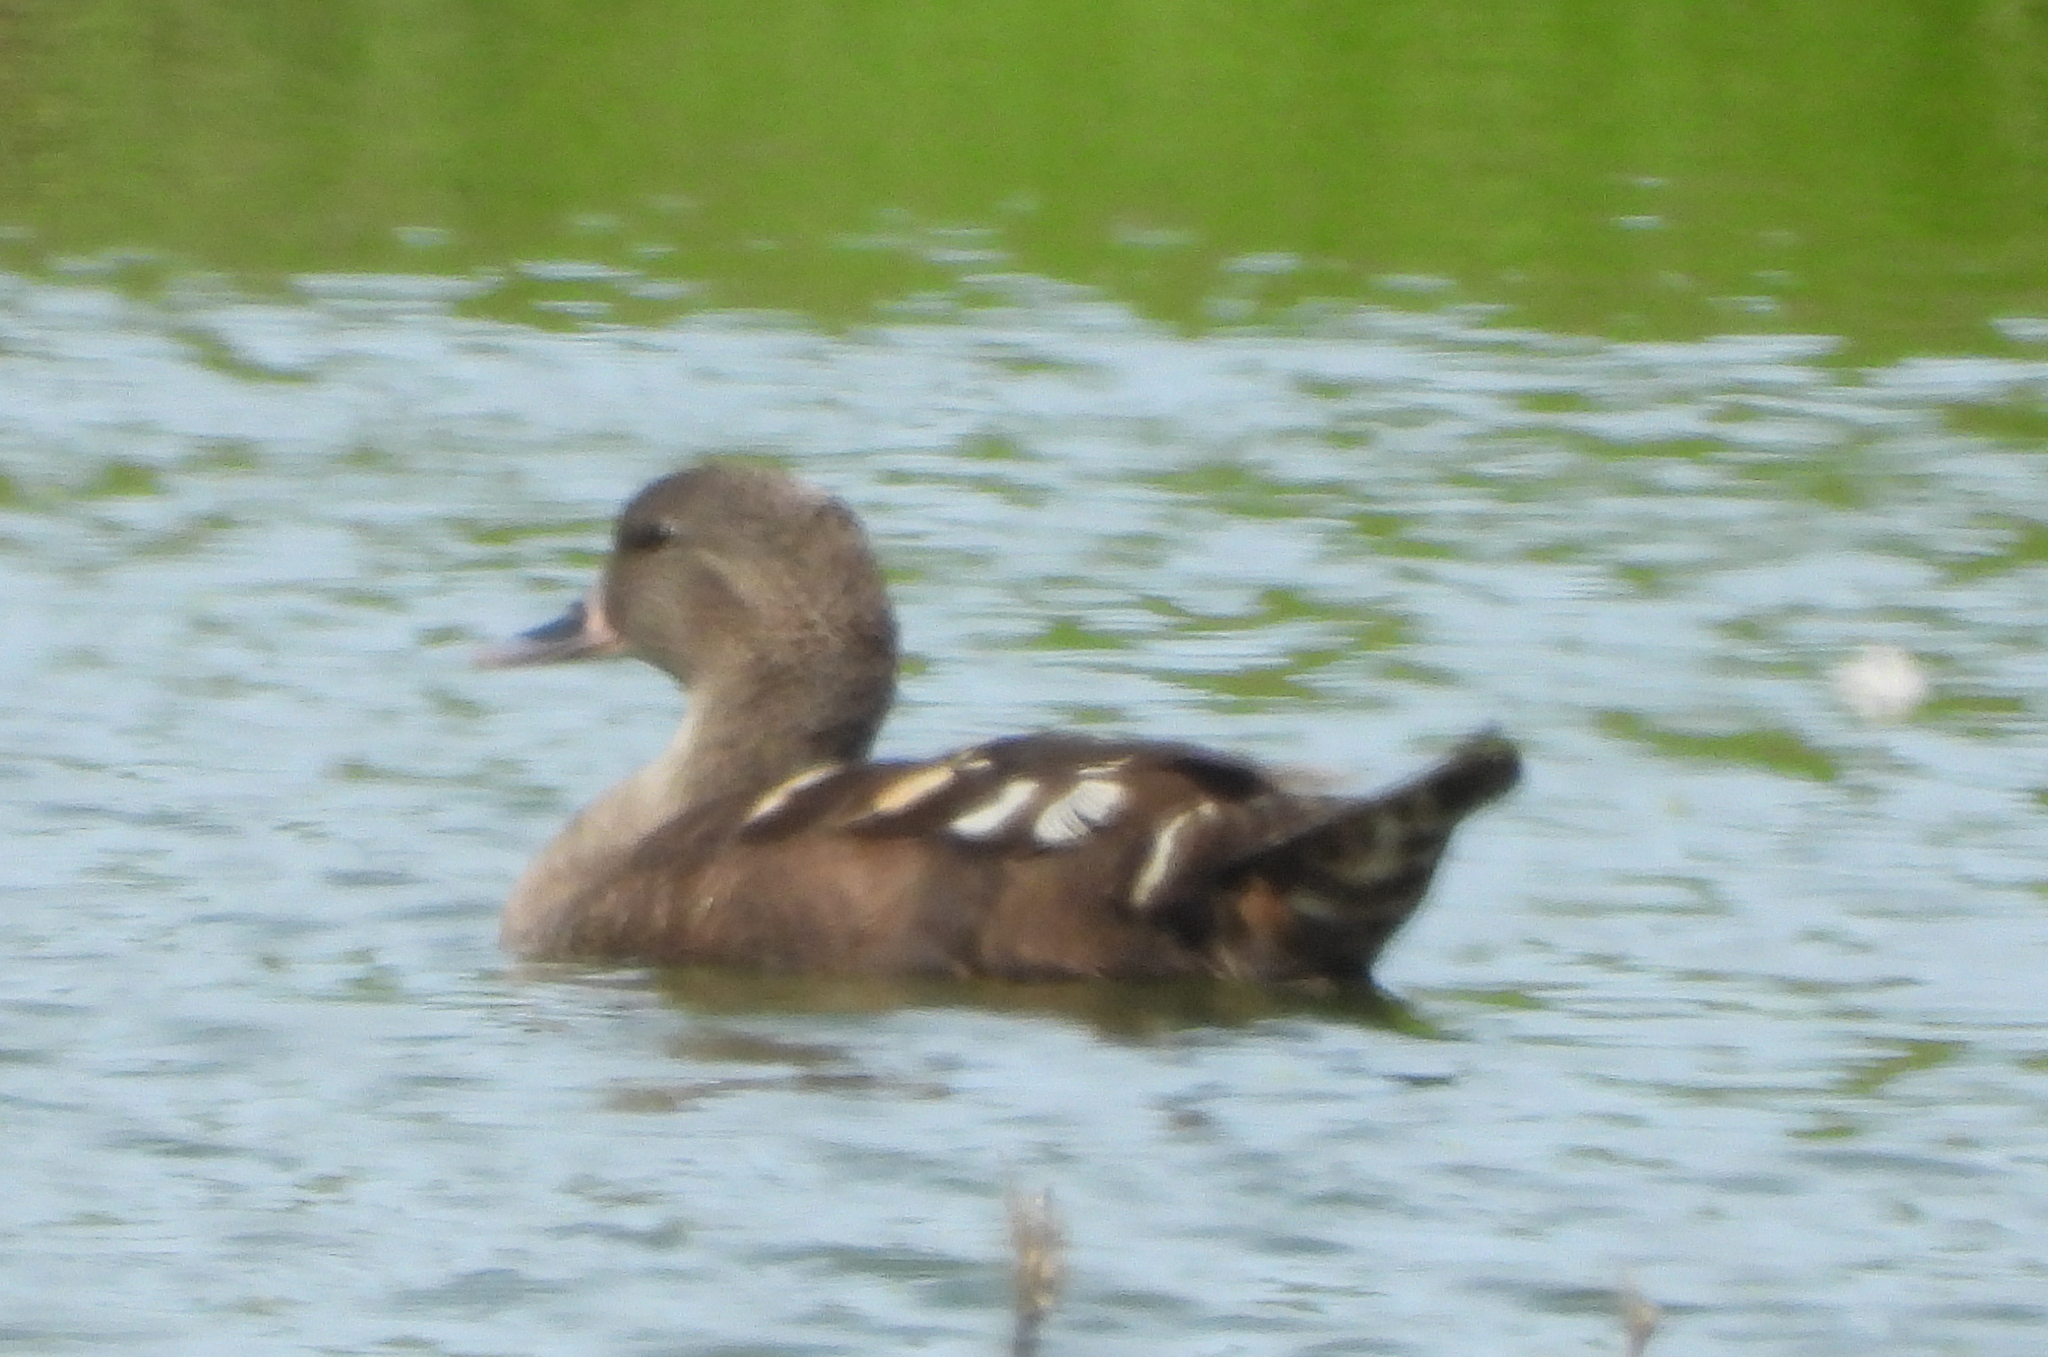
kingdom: Animalia
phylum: Chordata
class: Aves
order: Anseriformes
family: Anatidae
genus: Anas
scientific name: Anas sparsa
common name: African black duck
